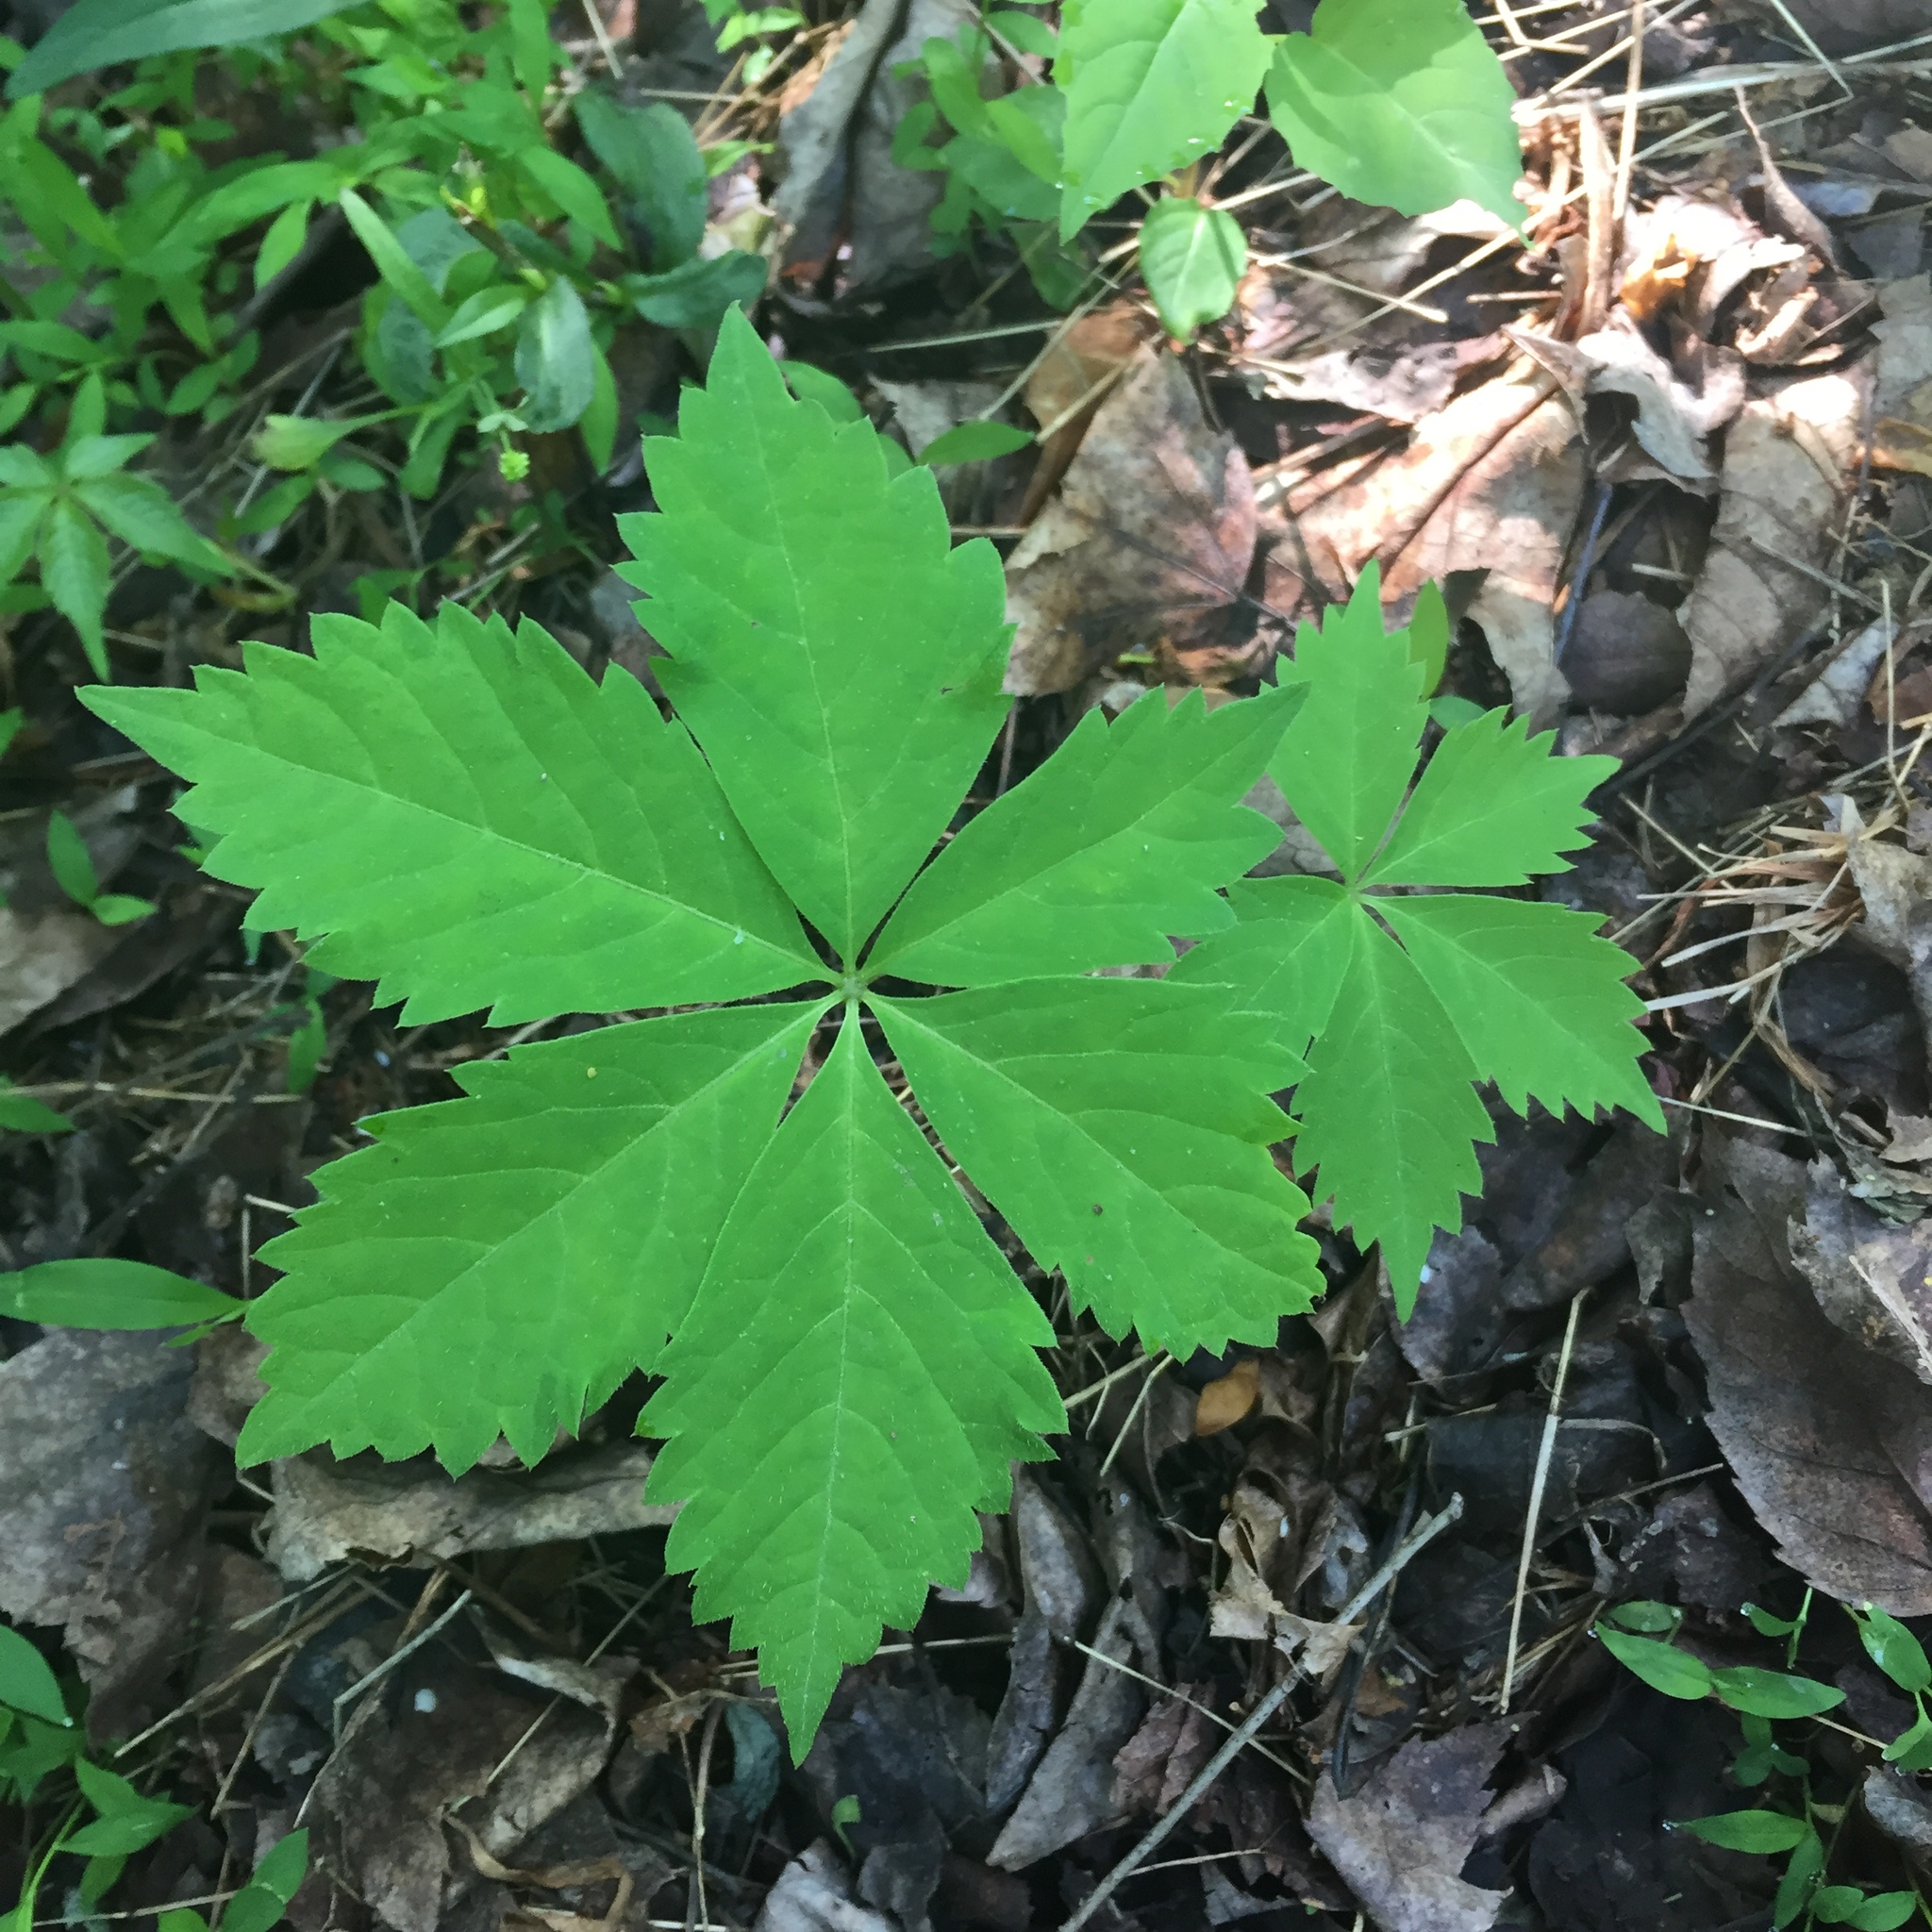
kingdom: Plantae
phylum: Tracheophyta
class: Magnoliopsida
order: Vitales
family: Vitaceae
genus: Parthenocissus
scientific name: Parthenocissus quinquefolia
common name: Virginia-creeper
